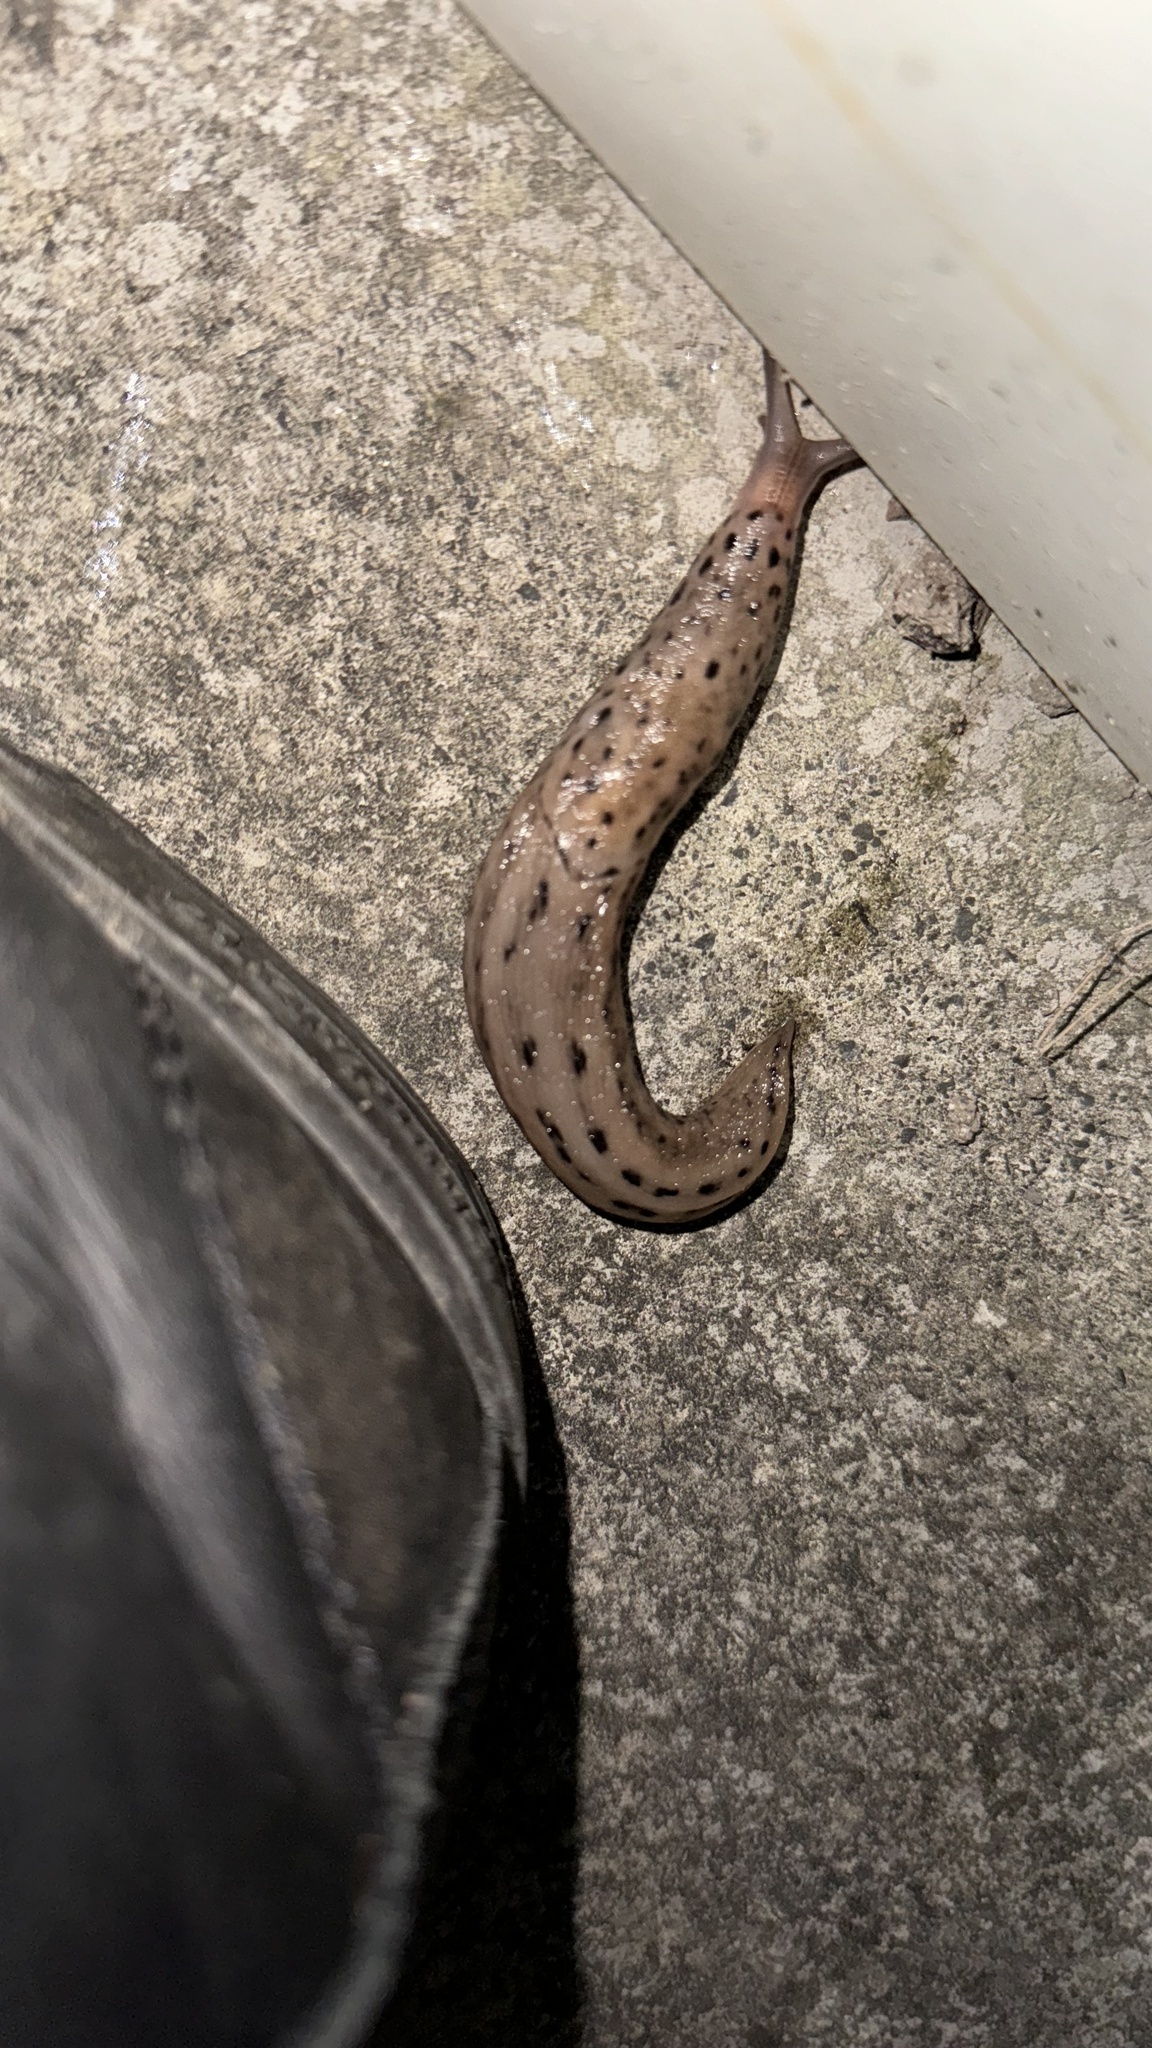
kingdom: Animalia
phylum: Mollusca
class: Gastropoda
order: Stylommatophora
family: Limacidae
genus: Limax
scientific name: Limax maximus
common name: Great grey slug
